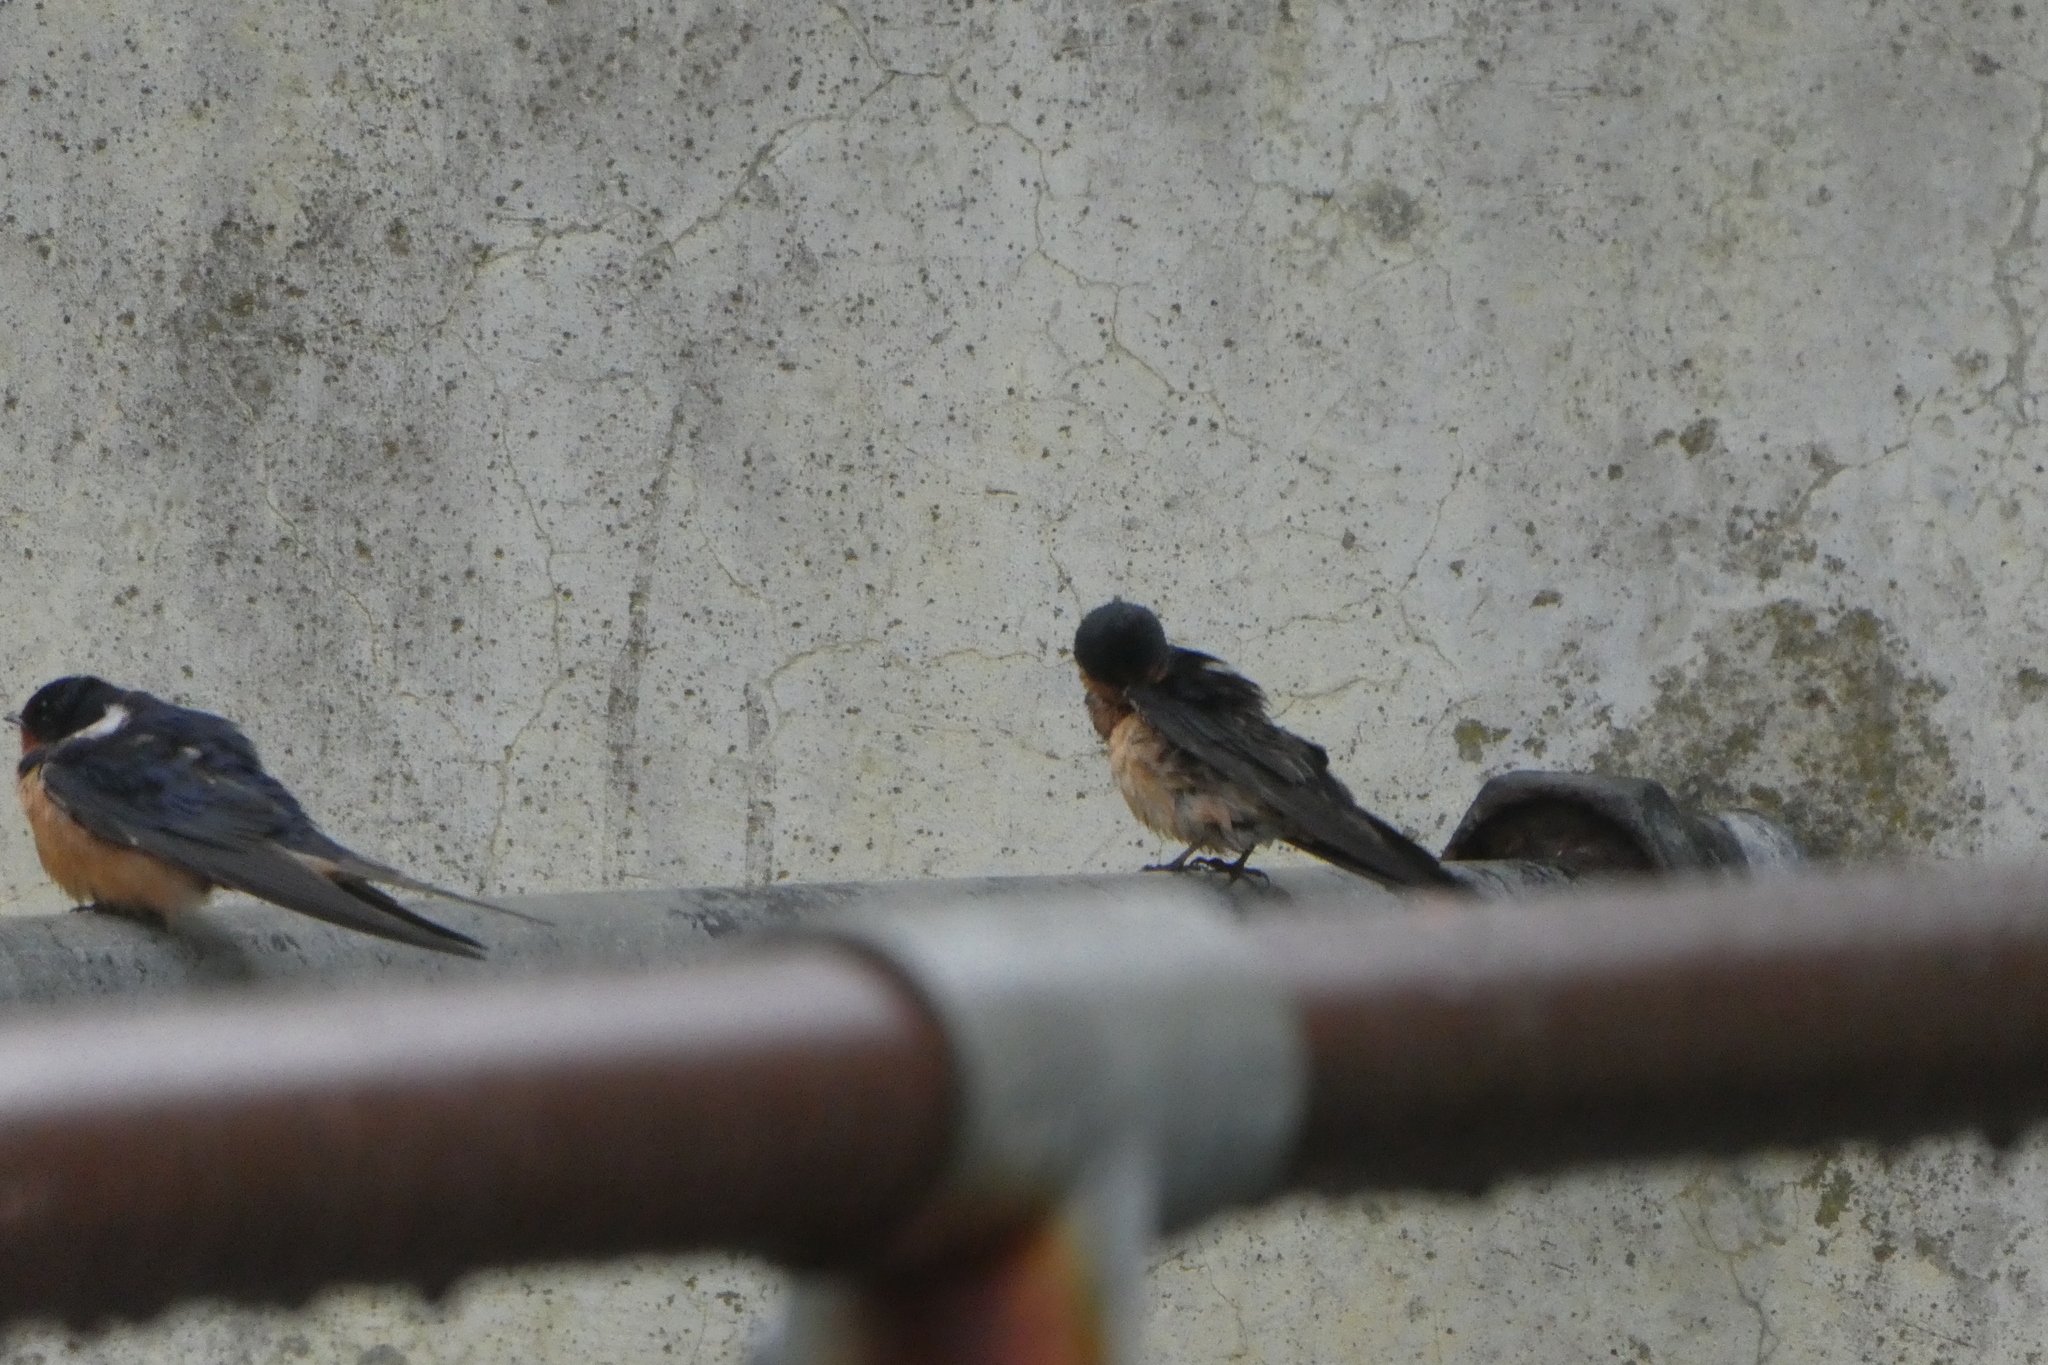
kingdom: Animalia
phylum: Chordata
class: Aves
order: Passeriformes
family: Hirundinidae
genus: Hirundo
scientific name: Hirundo rustica
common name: Barn swallow
